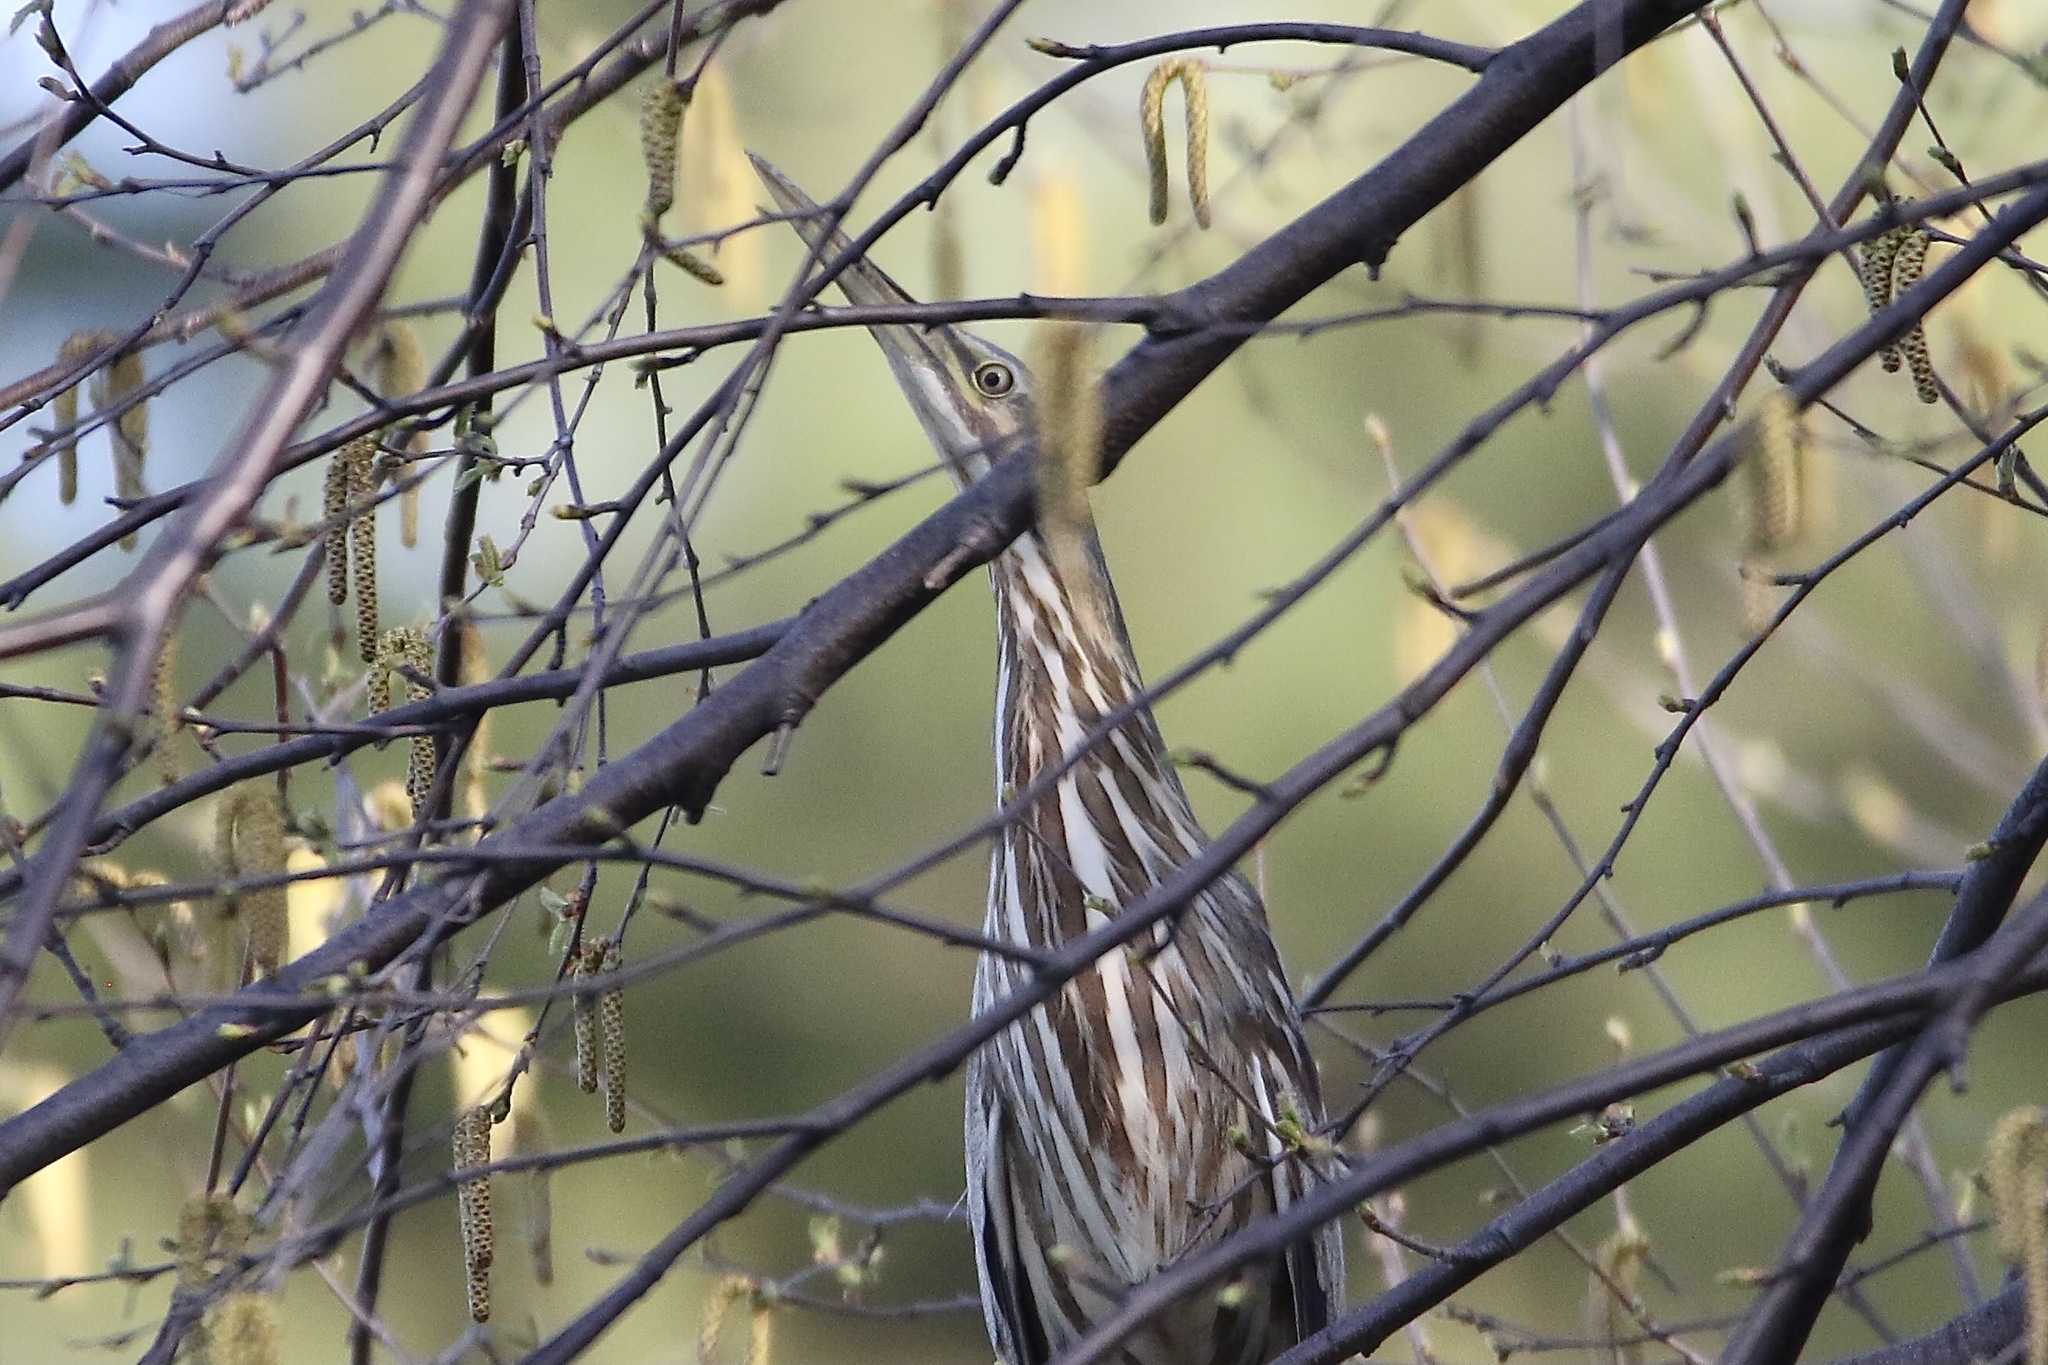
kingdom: Animalia
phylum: Chordata
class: Aves
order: Pelecaniformes
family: Ardeidae
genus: Botaurus
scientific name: Botaurus lentiginosus
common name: American bittern
